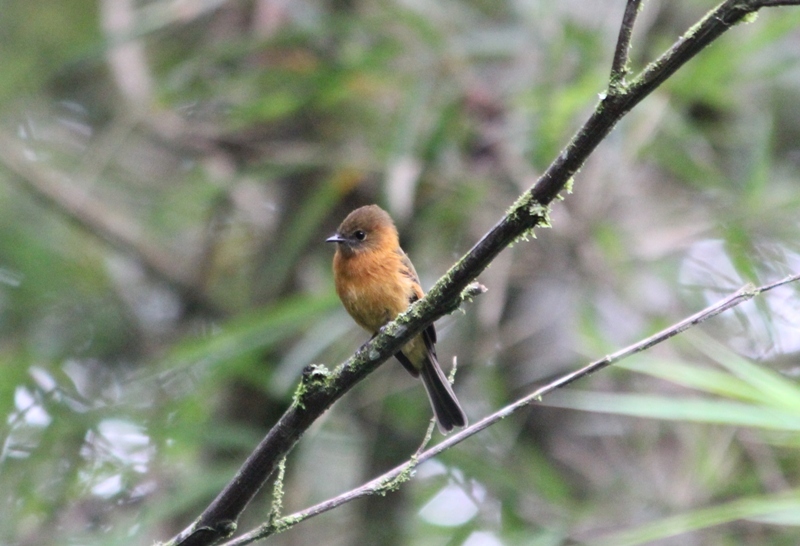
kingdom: Animalia
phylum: Chordata
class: Aves
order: Passeriformes
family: Tyrannidae
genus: Pyrrhomyias
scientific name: Pyrrhomyias cinnamomeus
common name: Cinnamon flycatcher
